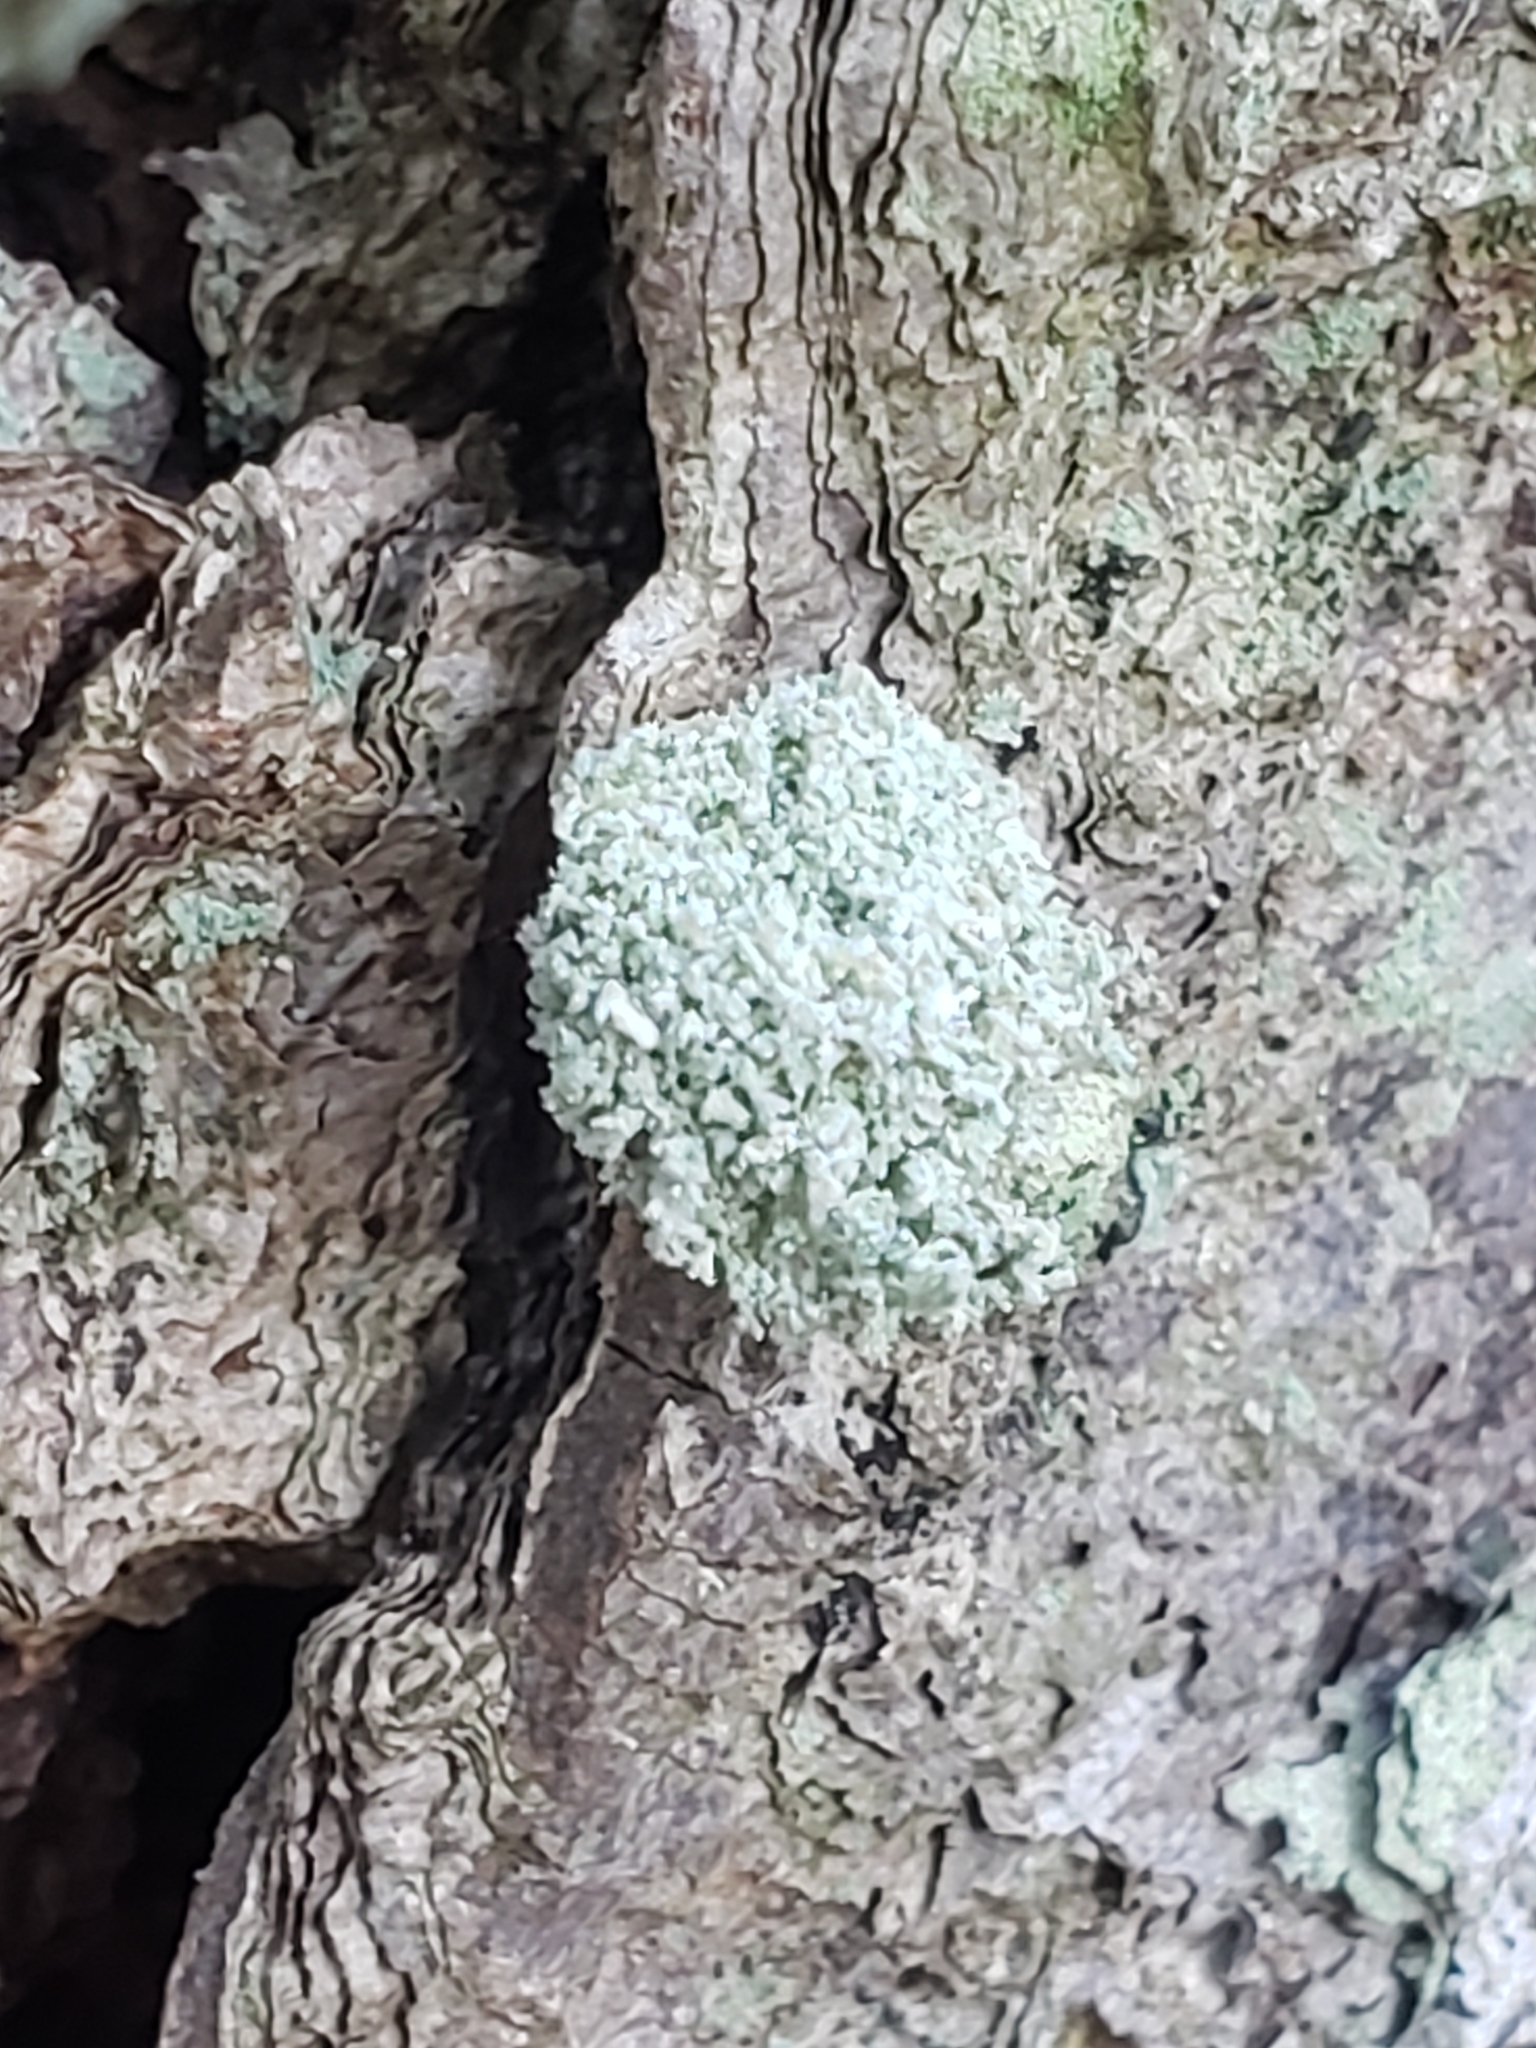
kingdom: Animalia
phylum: Arthropoda
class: Insecta
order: Neuroptera
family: Chrysopidae
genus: Leucochrysa
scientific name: Leucochrysa pavida
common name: Lichen-carrying green lacewing
